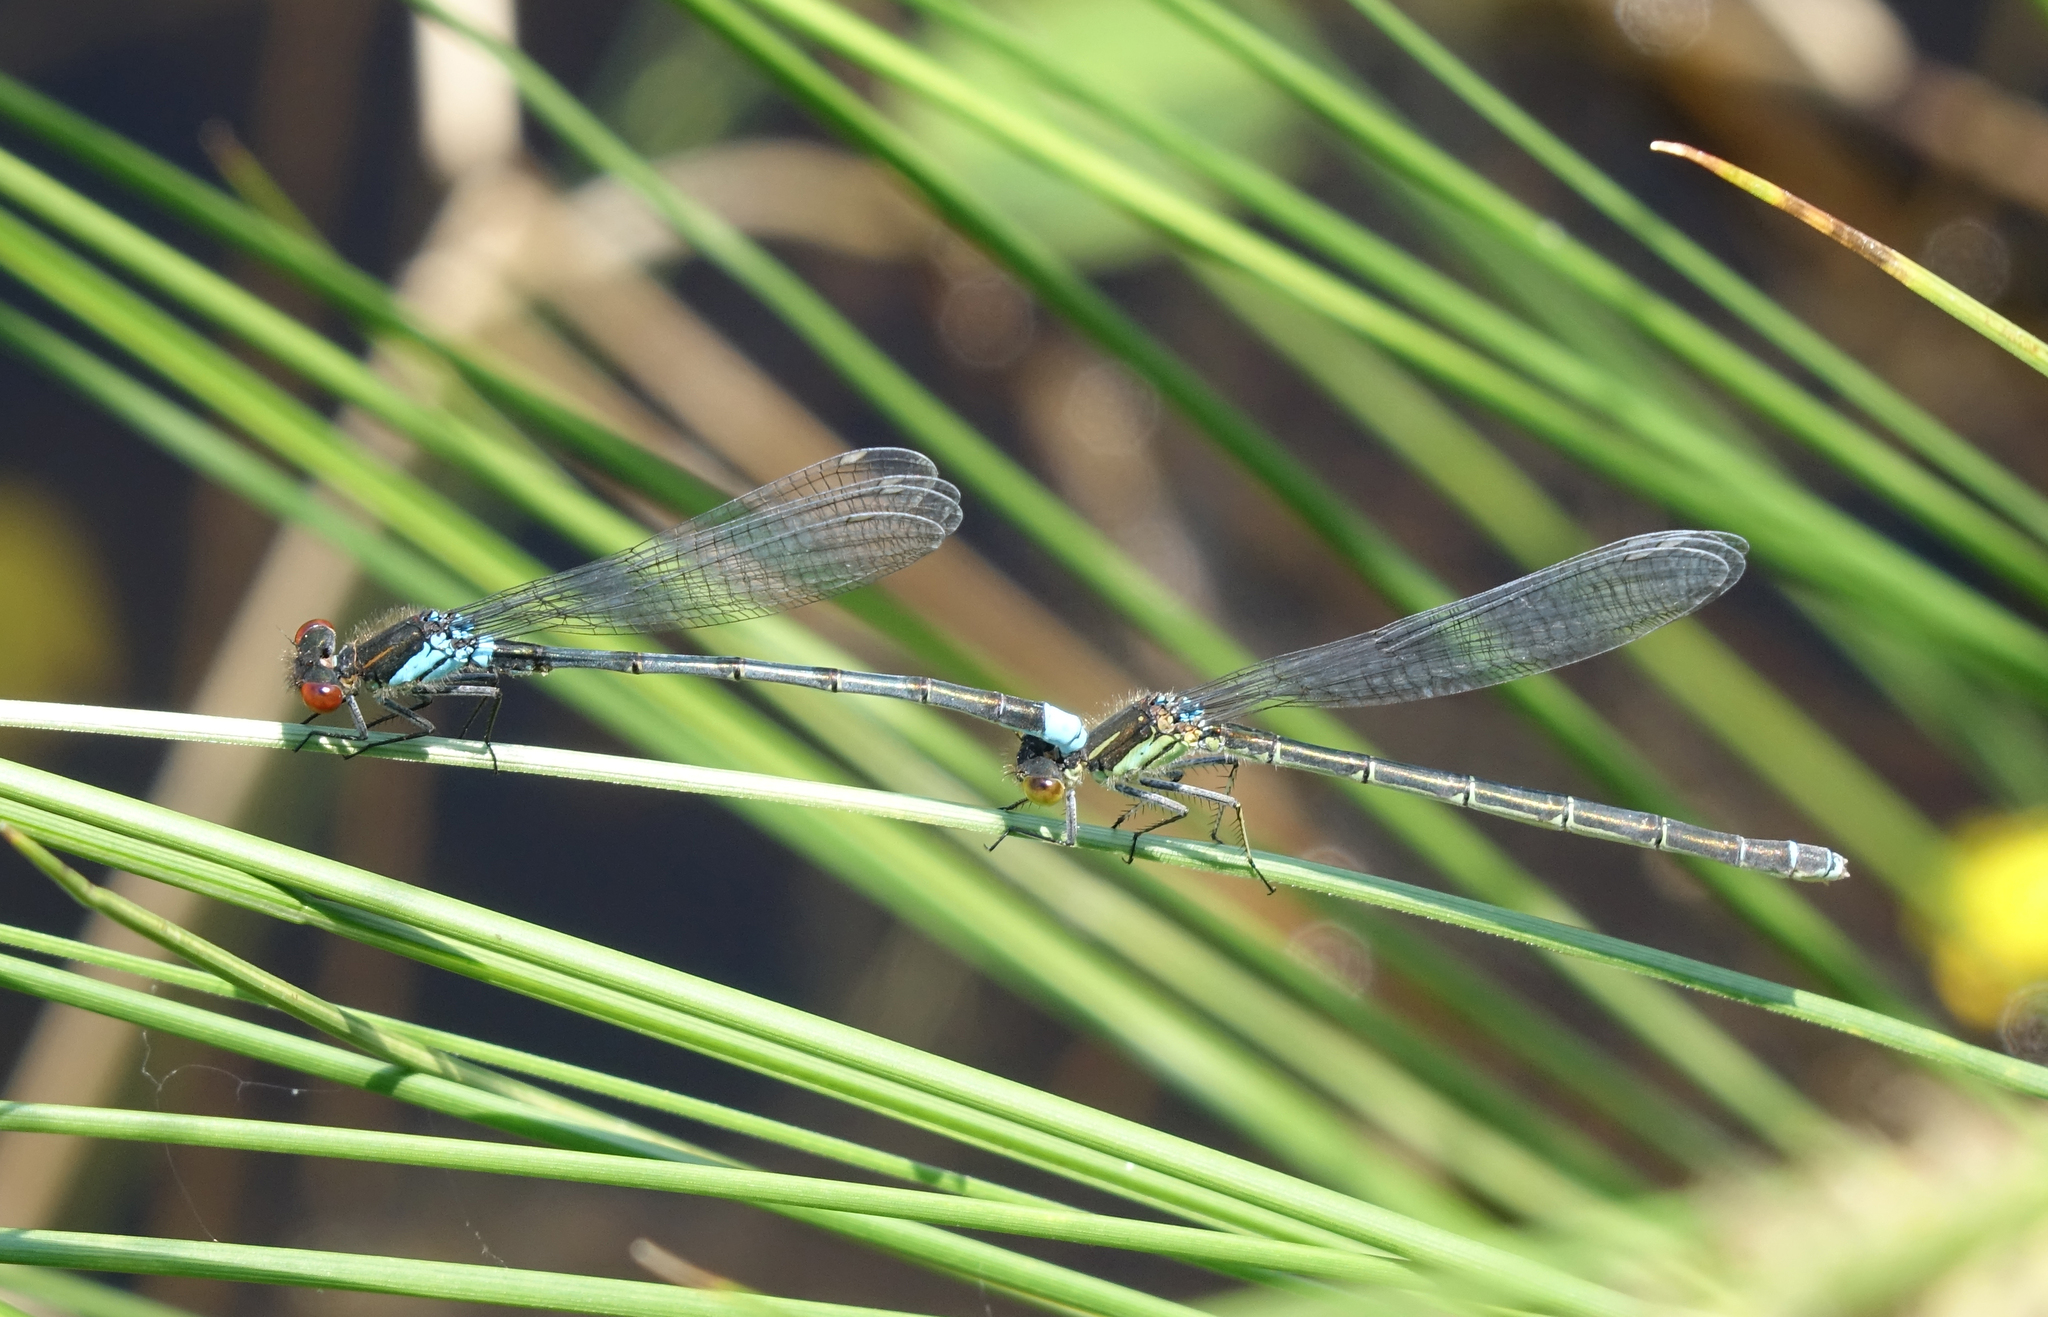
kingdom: Animalia
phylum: Arthropoda
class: Insecta
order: Odonata
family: Coenagrionidae
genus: Erythromma
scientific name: Erythromma najas
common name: Red-eyed damselfly
